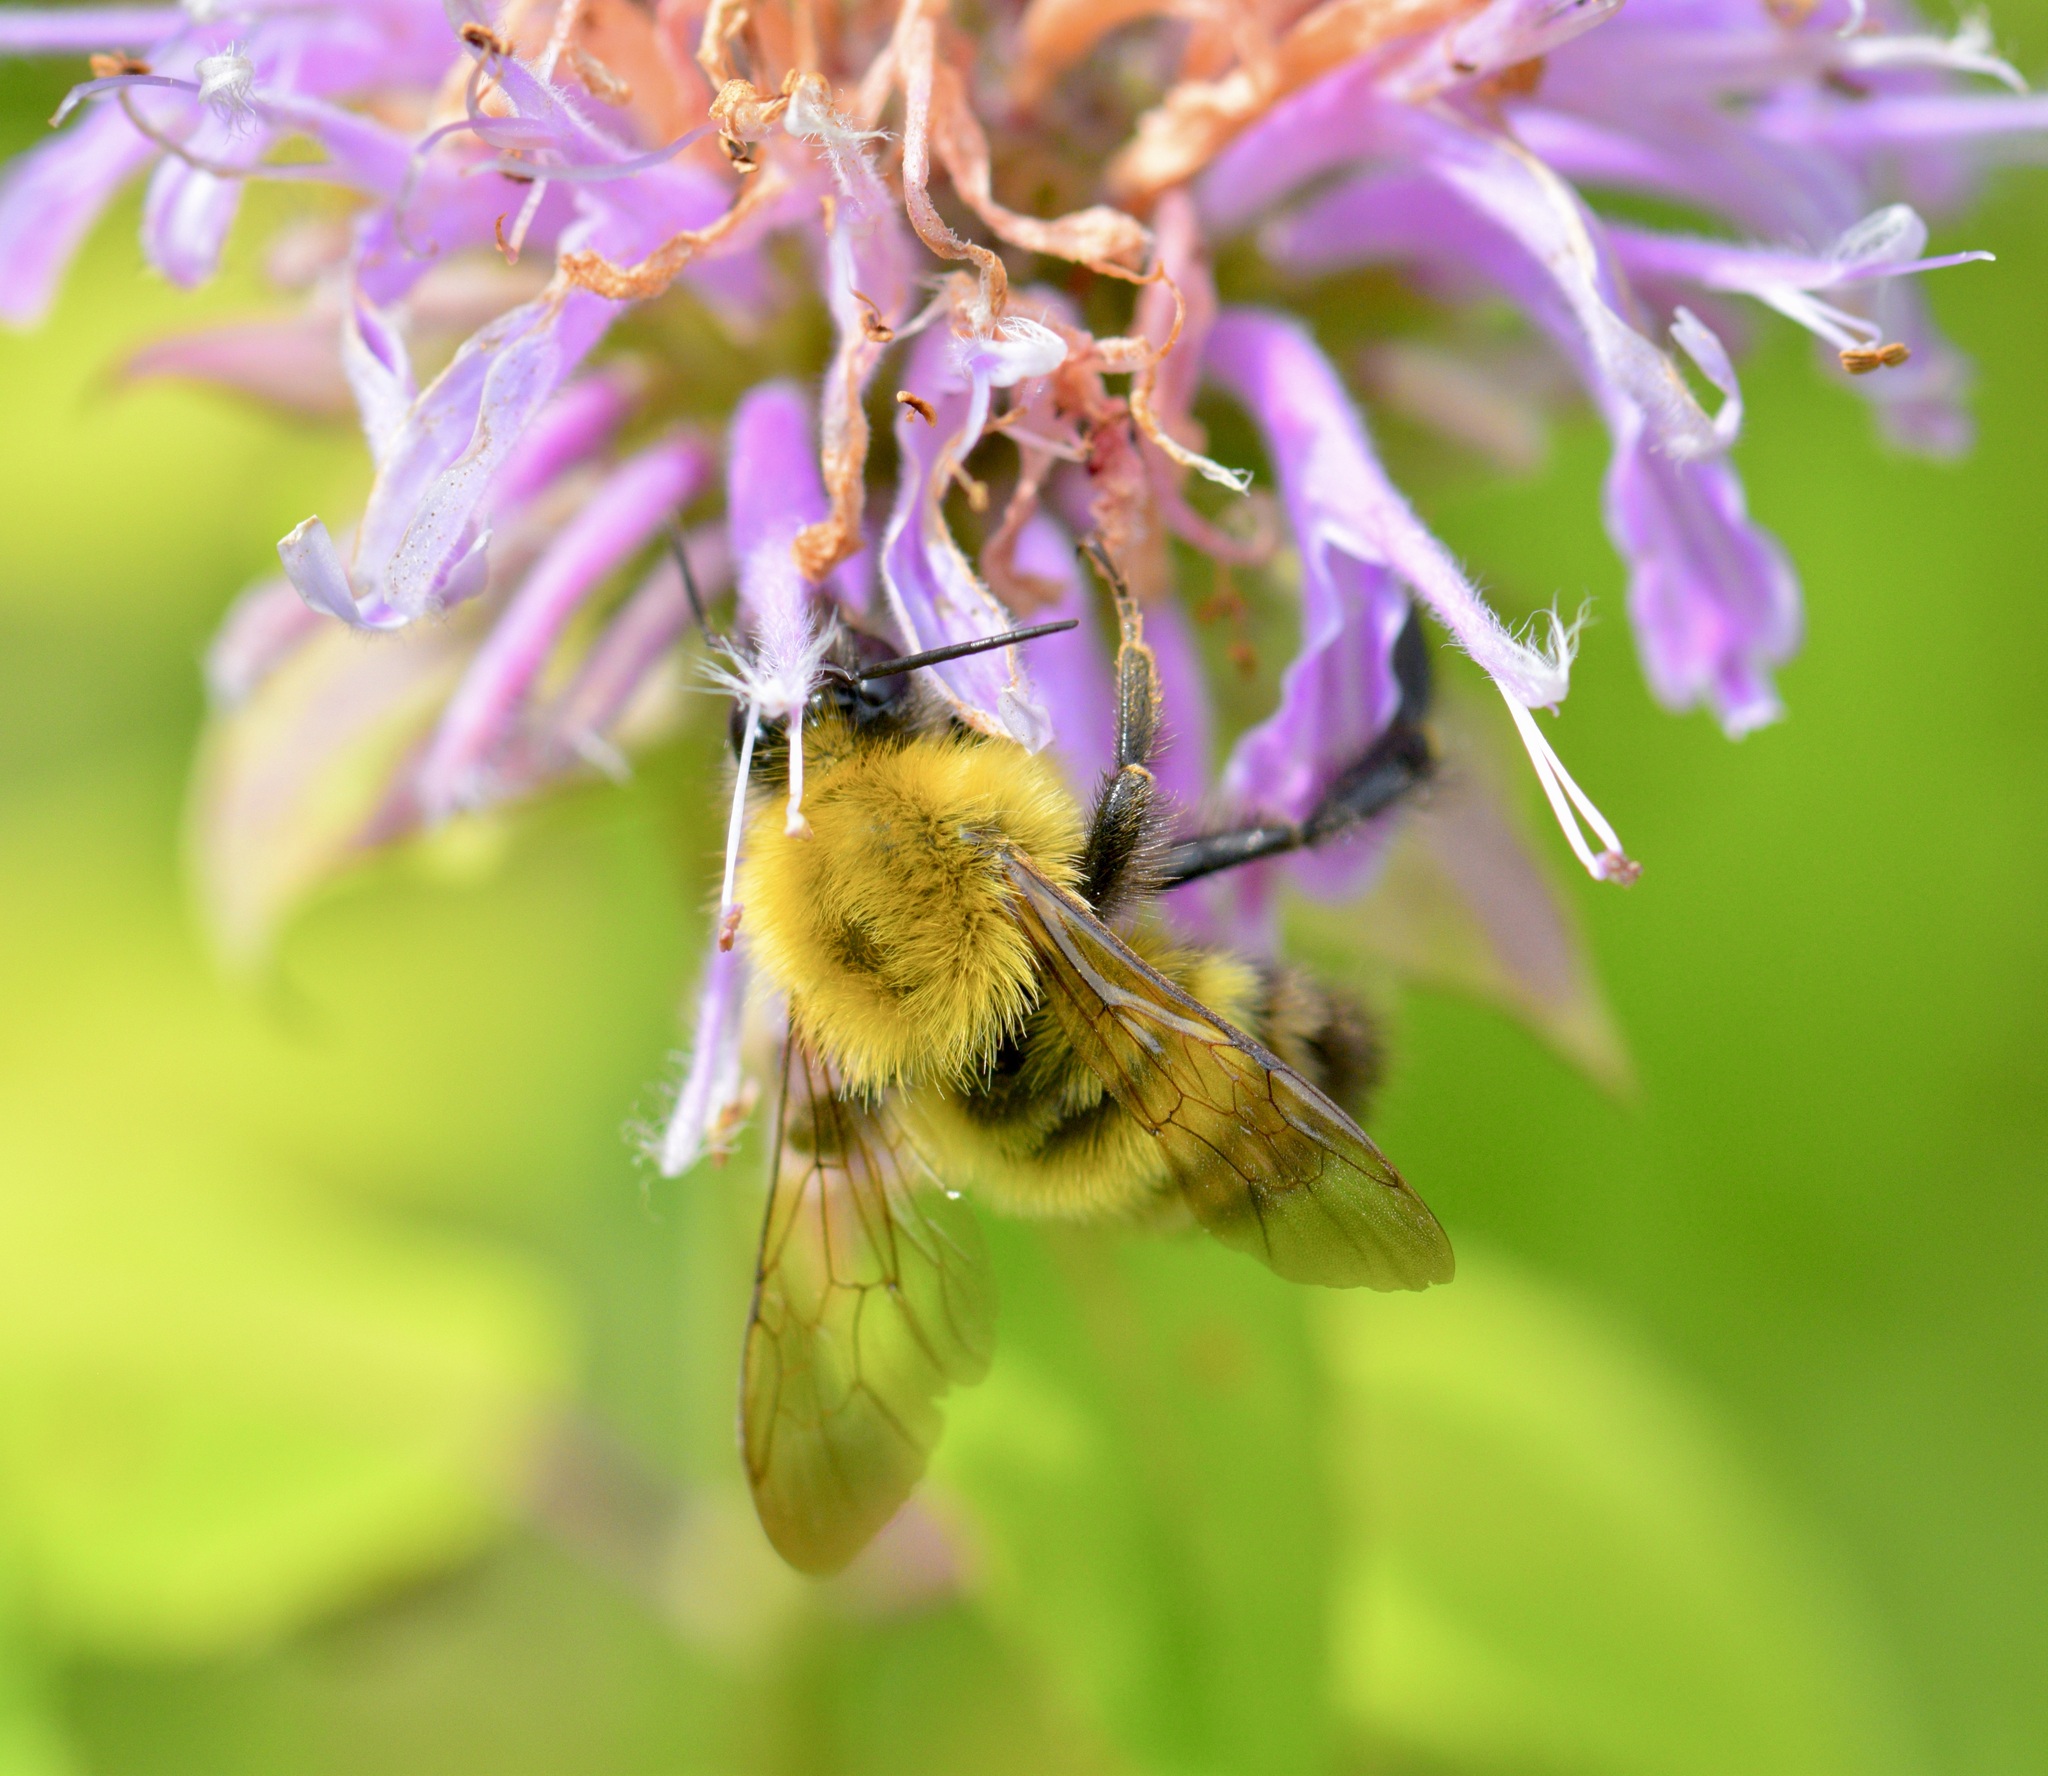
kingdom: Animalia
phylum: Arthropoda
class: Insecta
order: Hymenoptera
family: Apidae
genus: Bombus
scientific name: Bombus perplexus
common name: Confusing bumble bee
